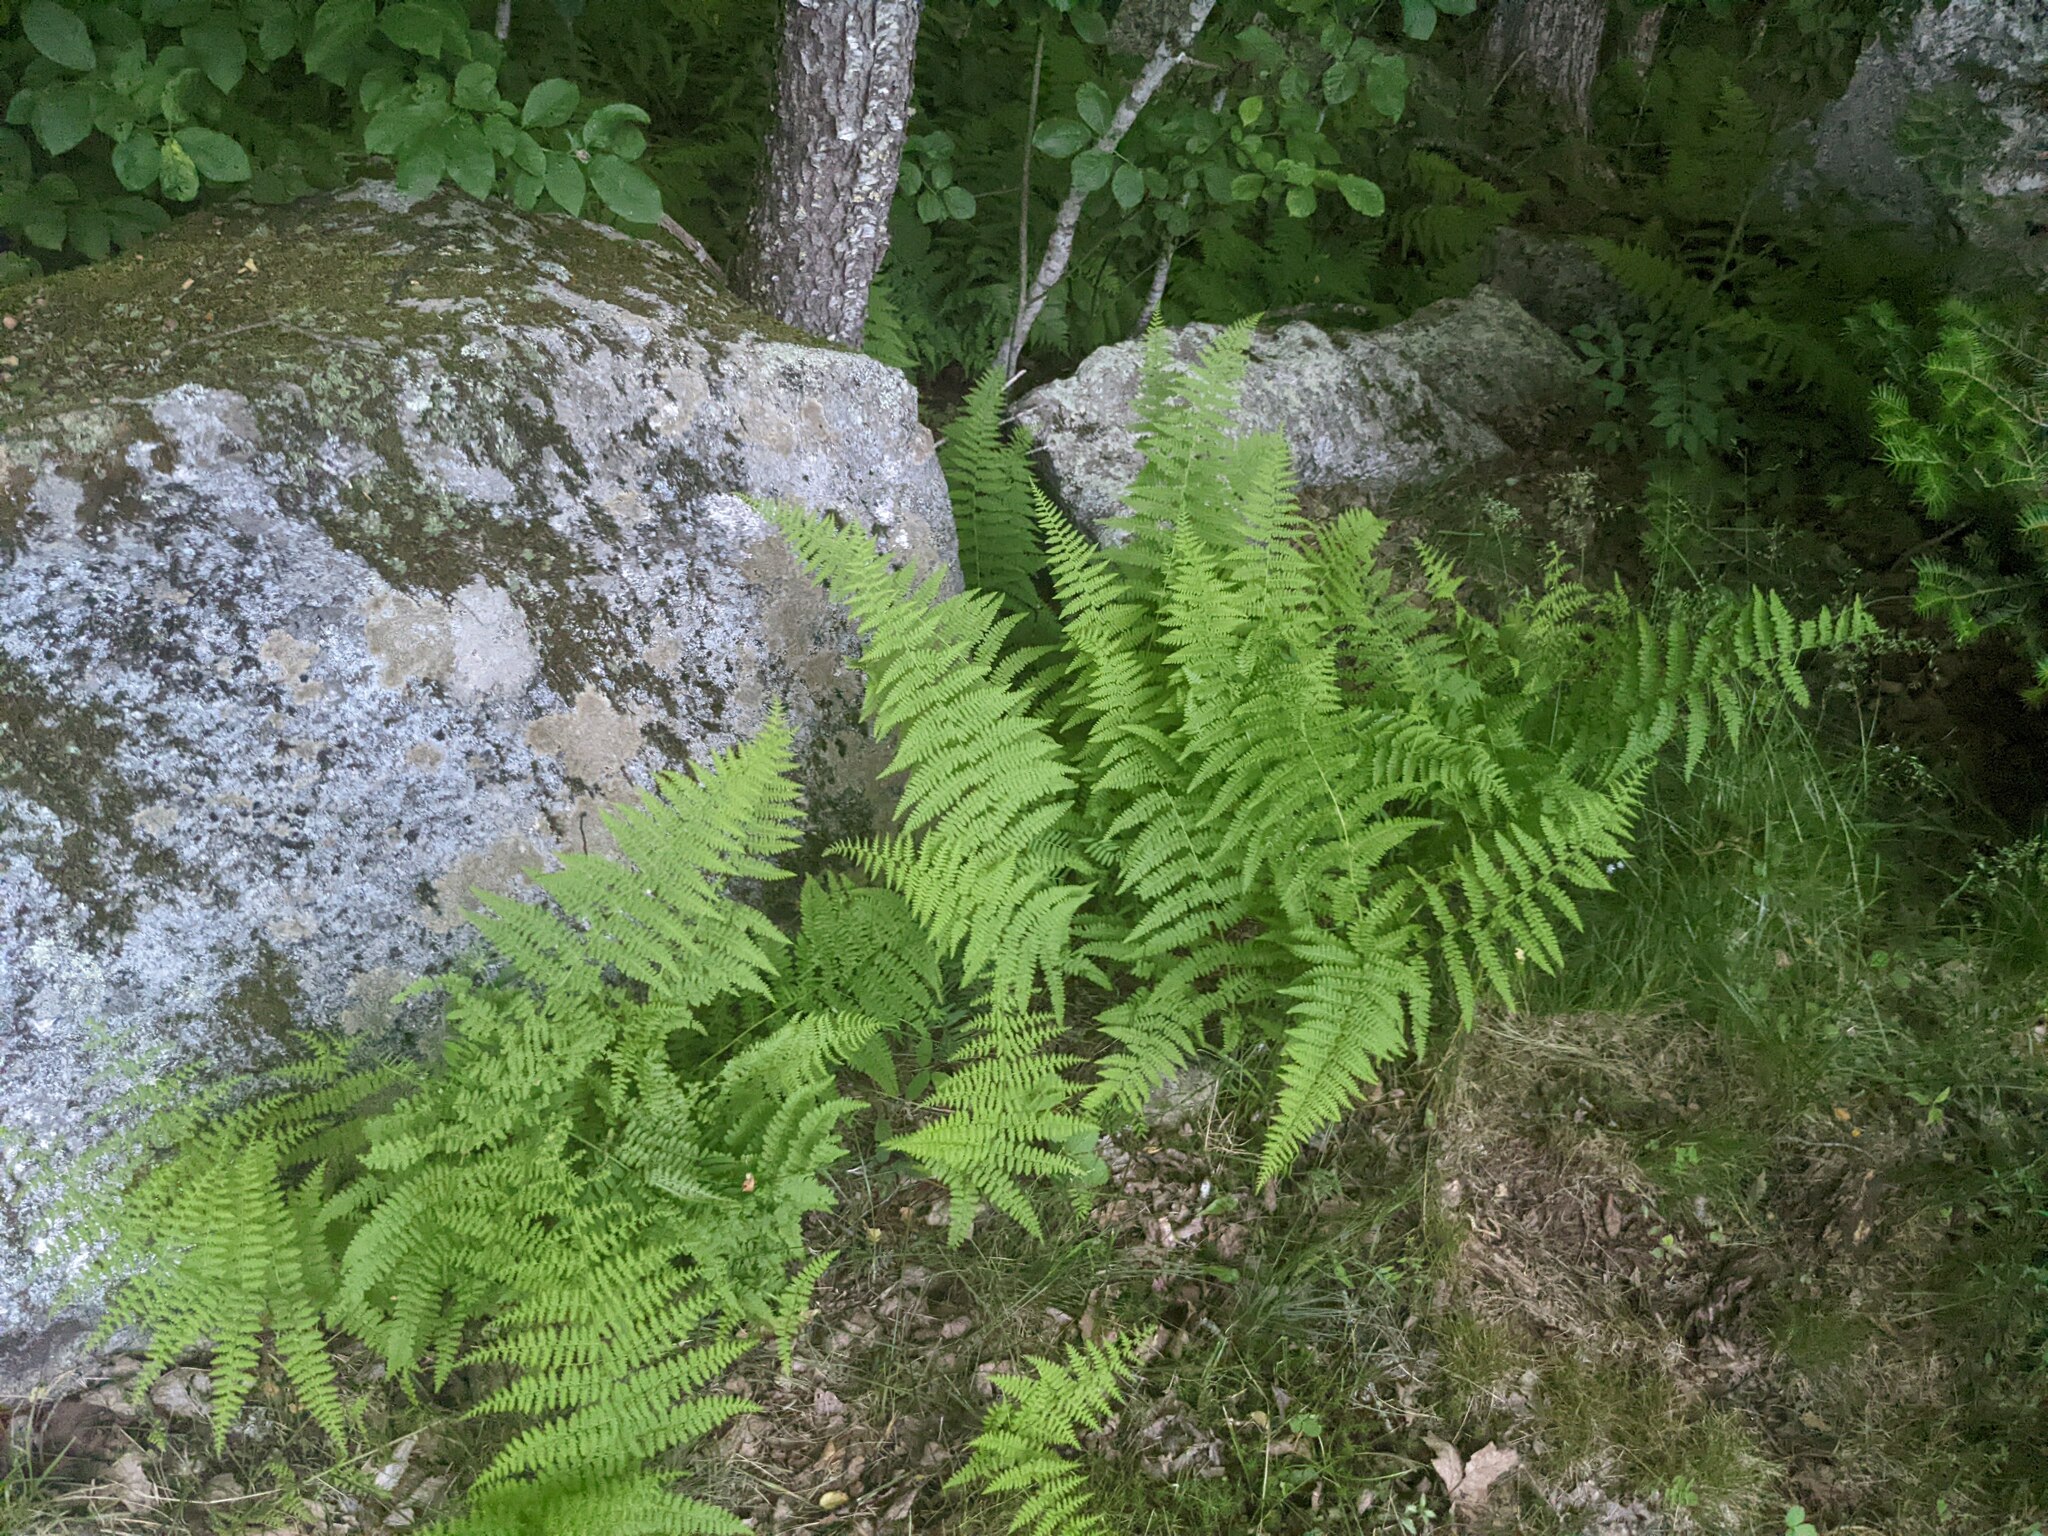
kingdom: Plantae
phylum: Tracheophyta
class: Polypodiopsida
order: Polypodiales
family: Dennstaedtiaceae
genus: Sitobolium
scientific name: Sitobolium punctilobum
